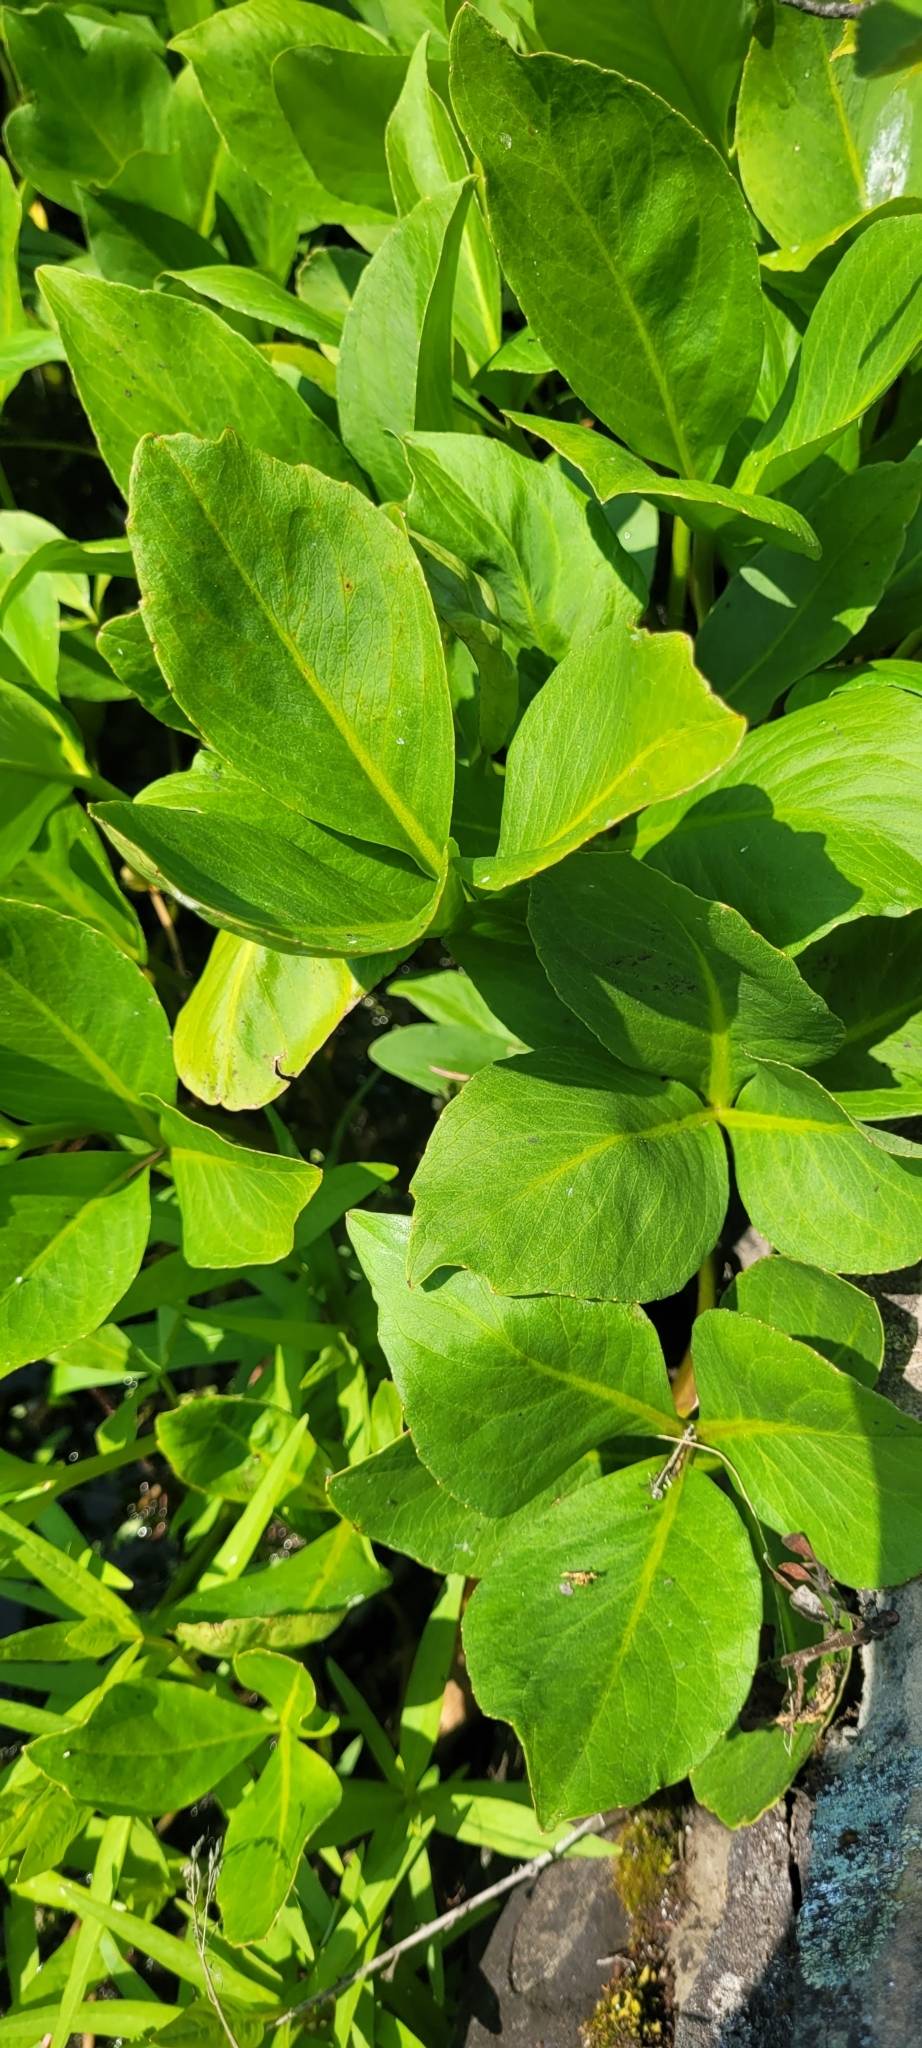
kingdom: Plantae
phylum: Tracheophyta
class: Magnoliopsida
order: Asterales
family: Menyanthaceae
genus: Menyanthes
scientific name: Menyanthes trifoliata
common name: Bogbean
